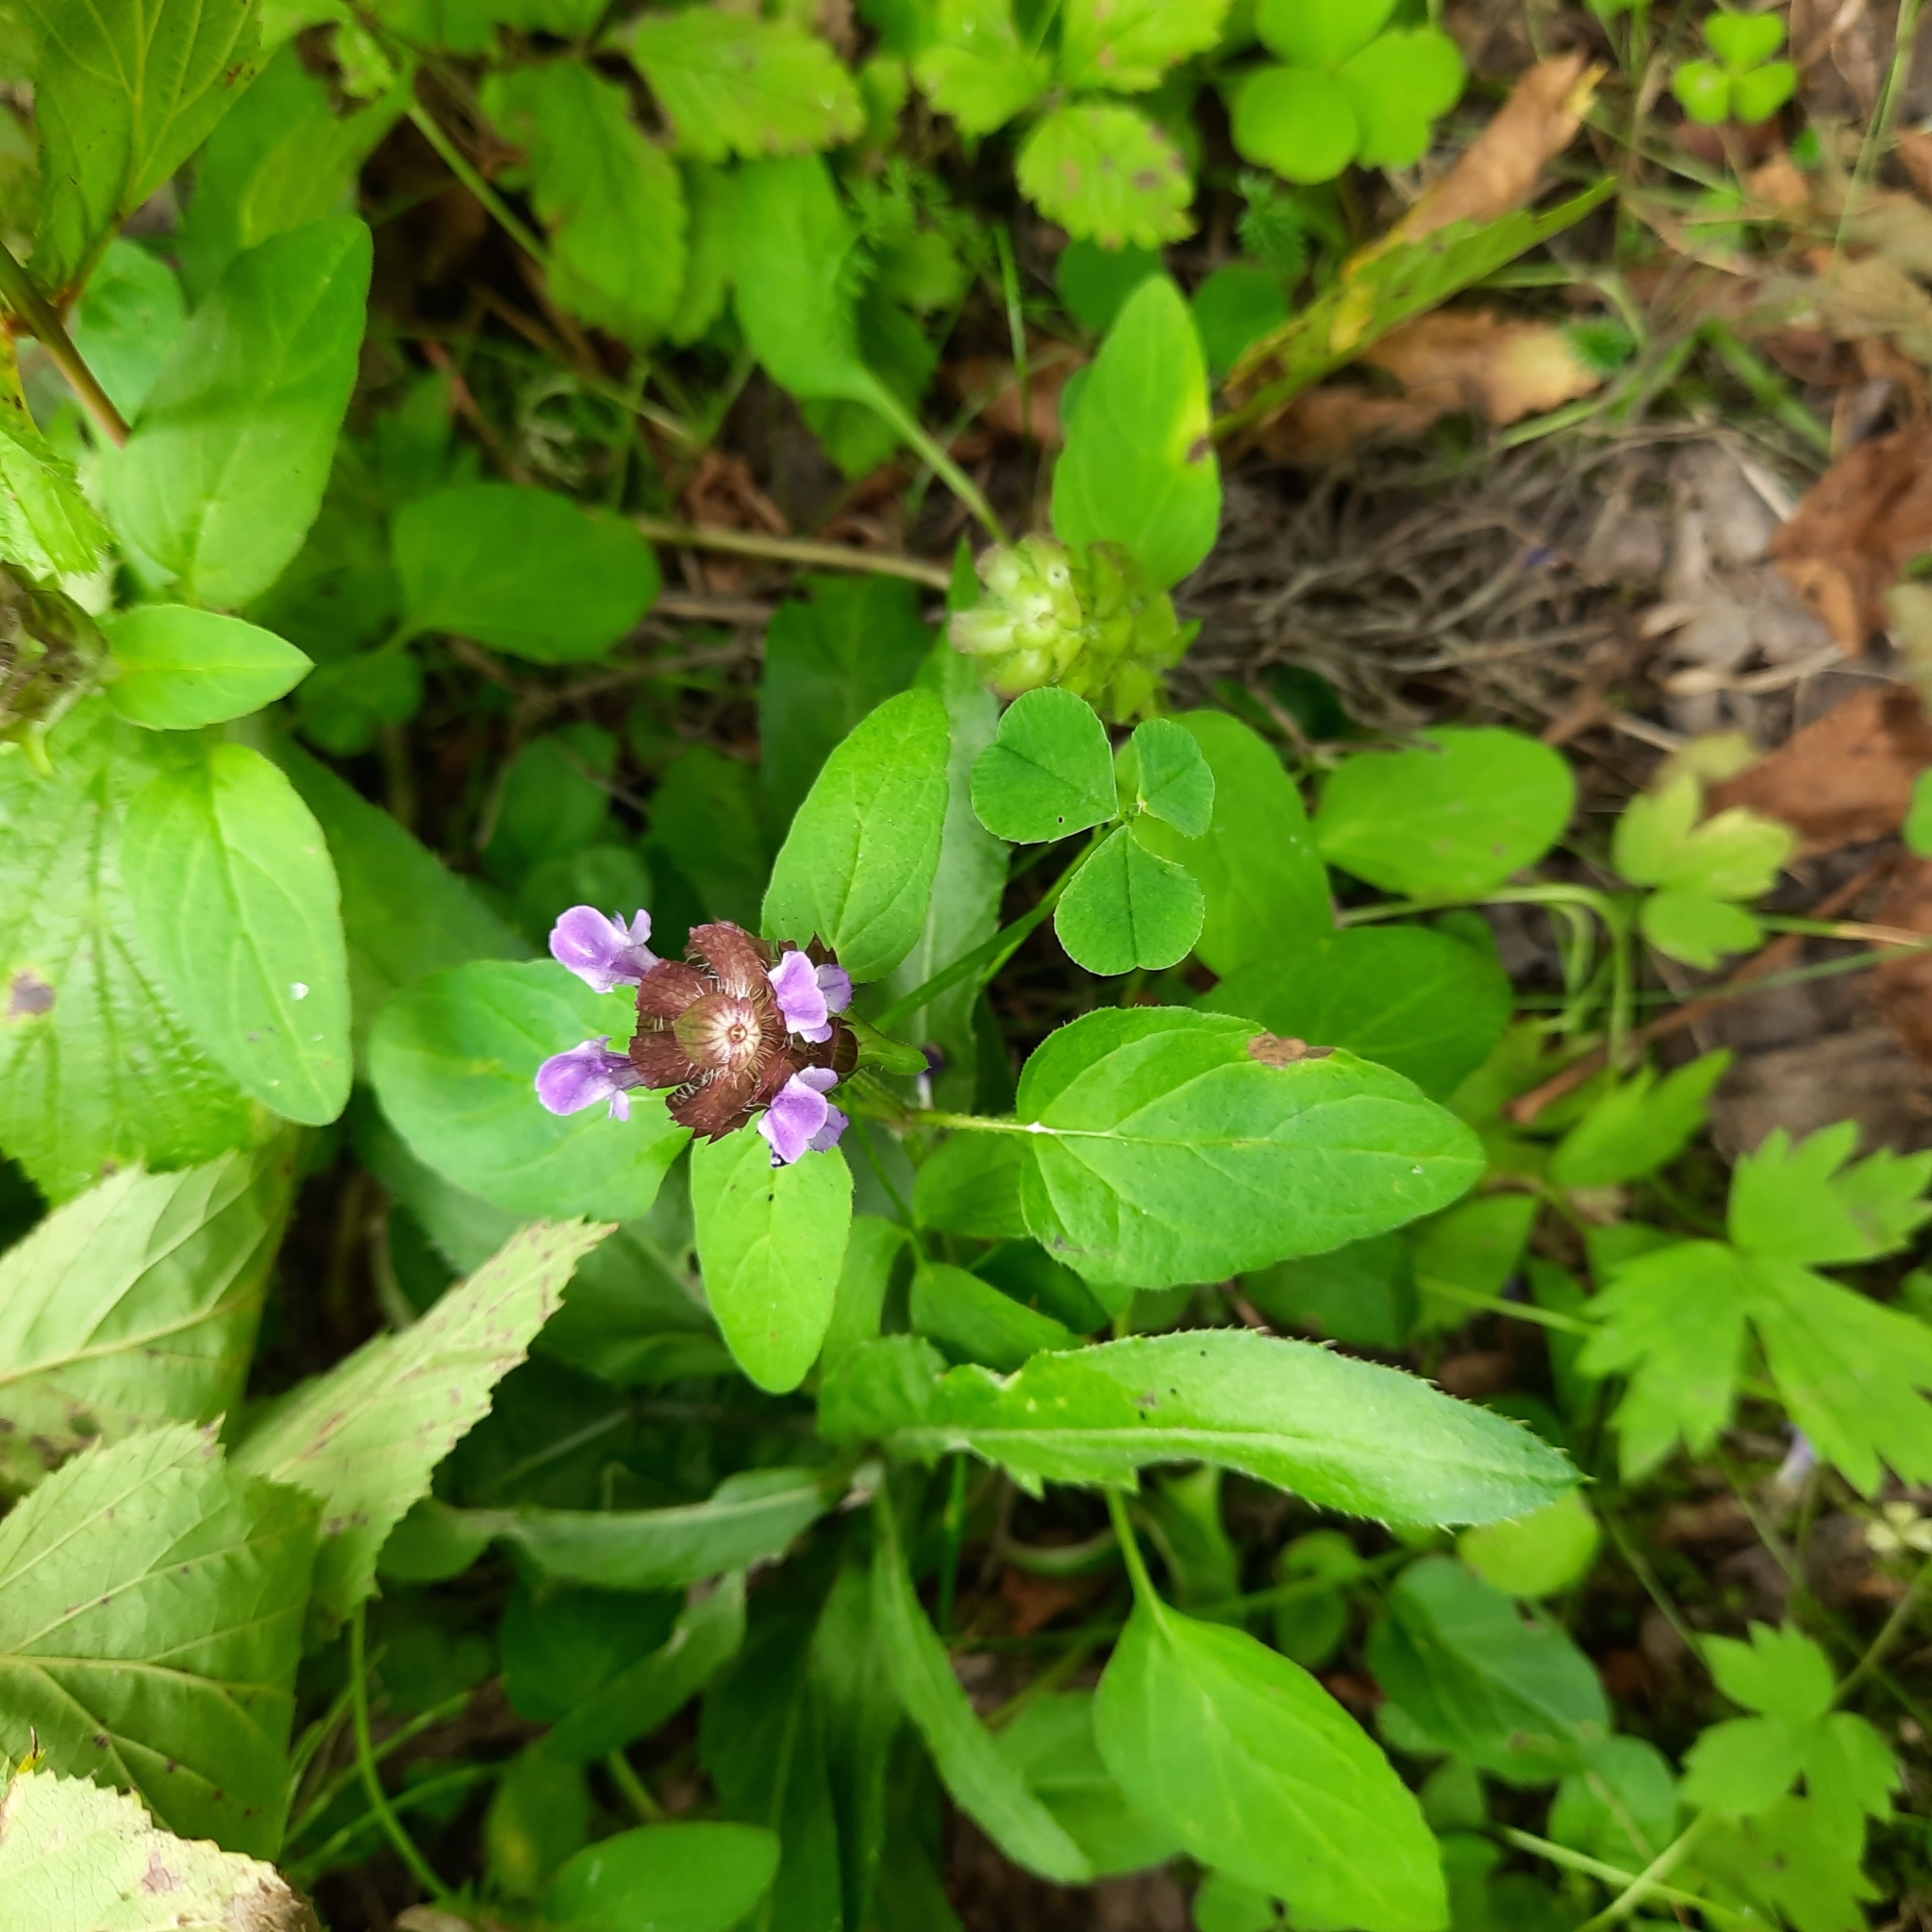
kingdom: Plantae
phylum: Tracheophyta
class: Magnoliopsida
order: Lamiales
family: Lamiaceae
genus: Prunella
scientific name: Prunella vulgaris
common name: Heal-all
